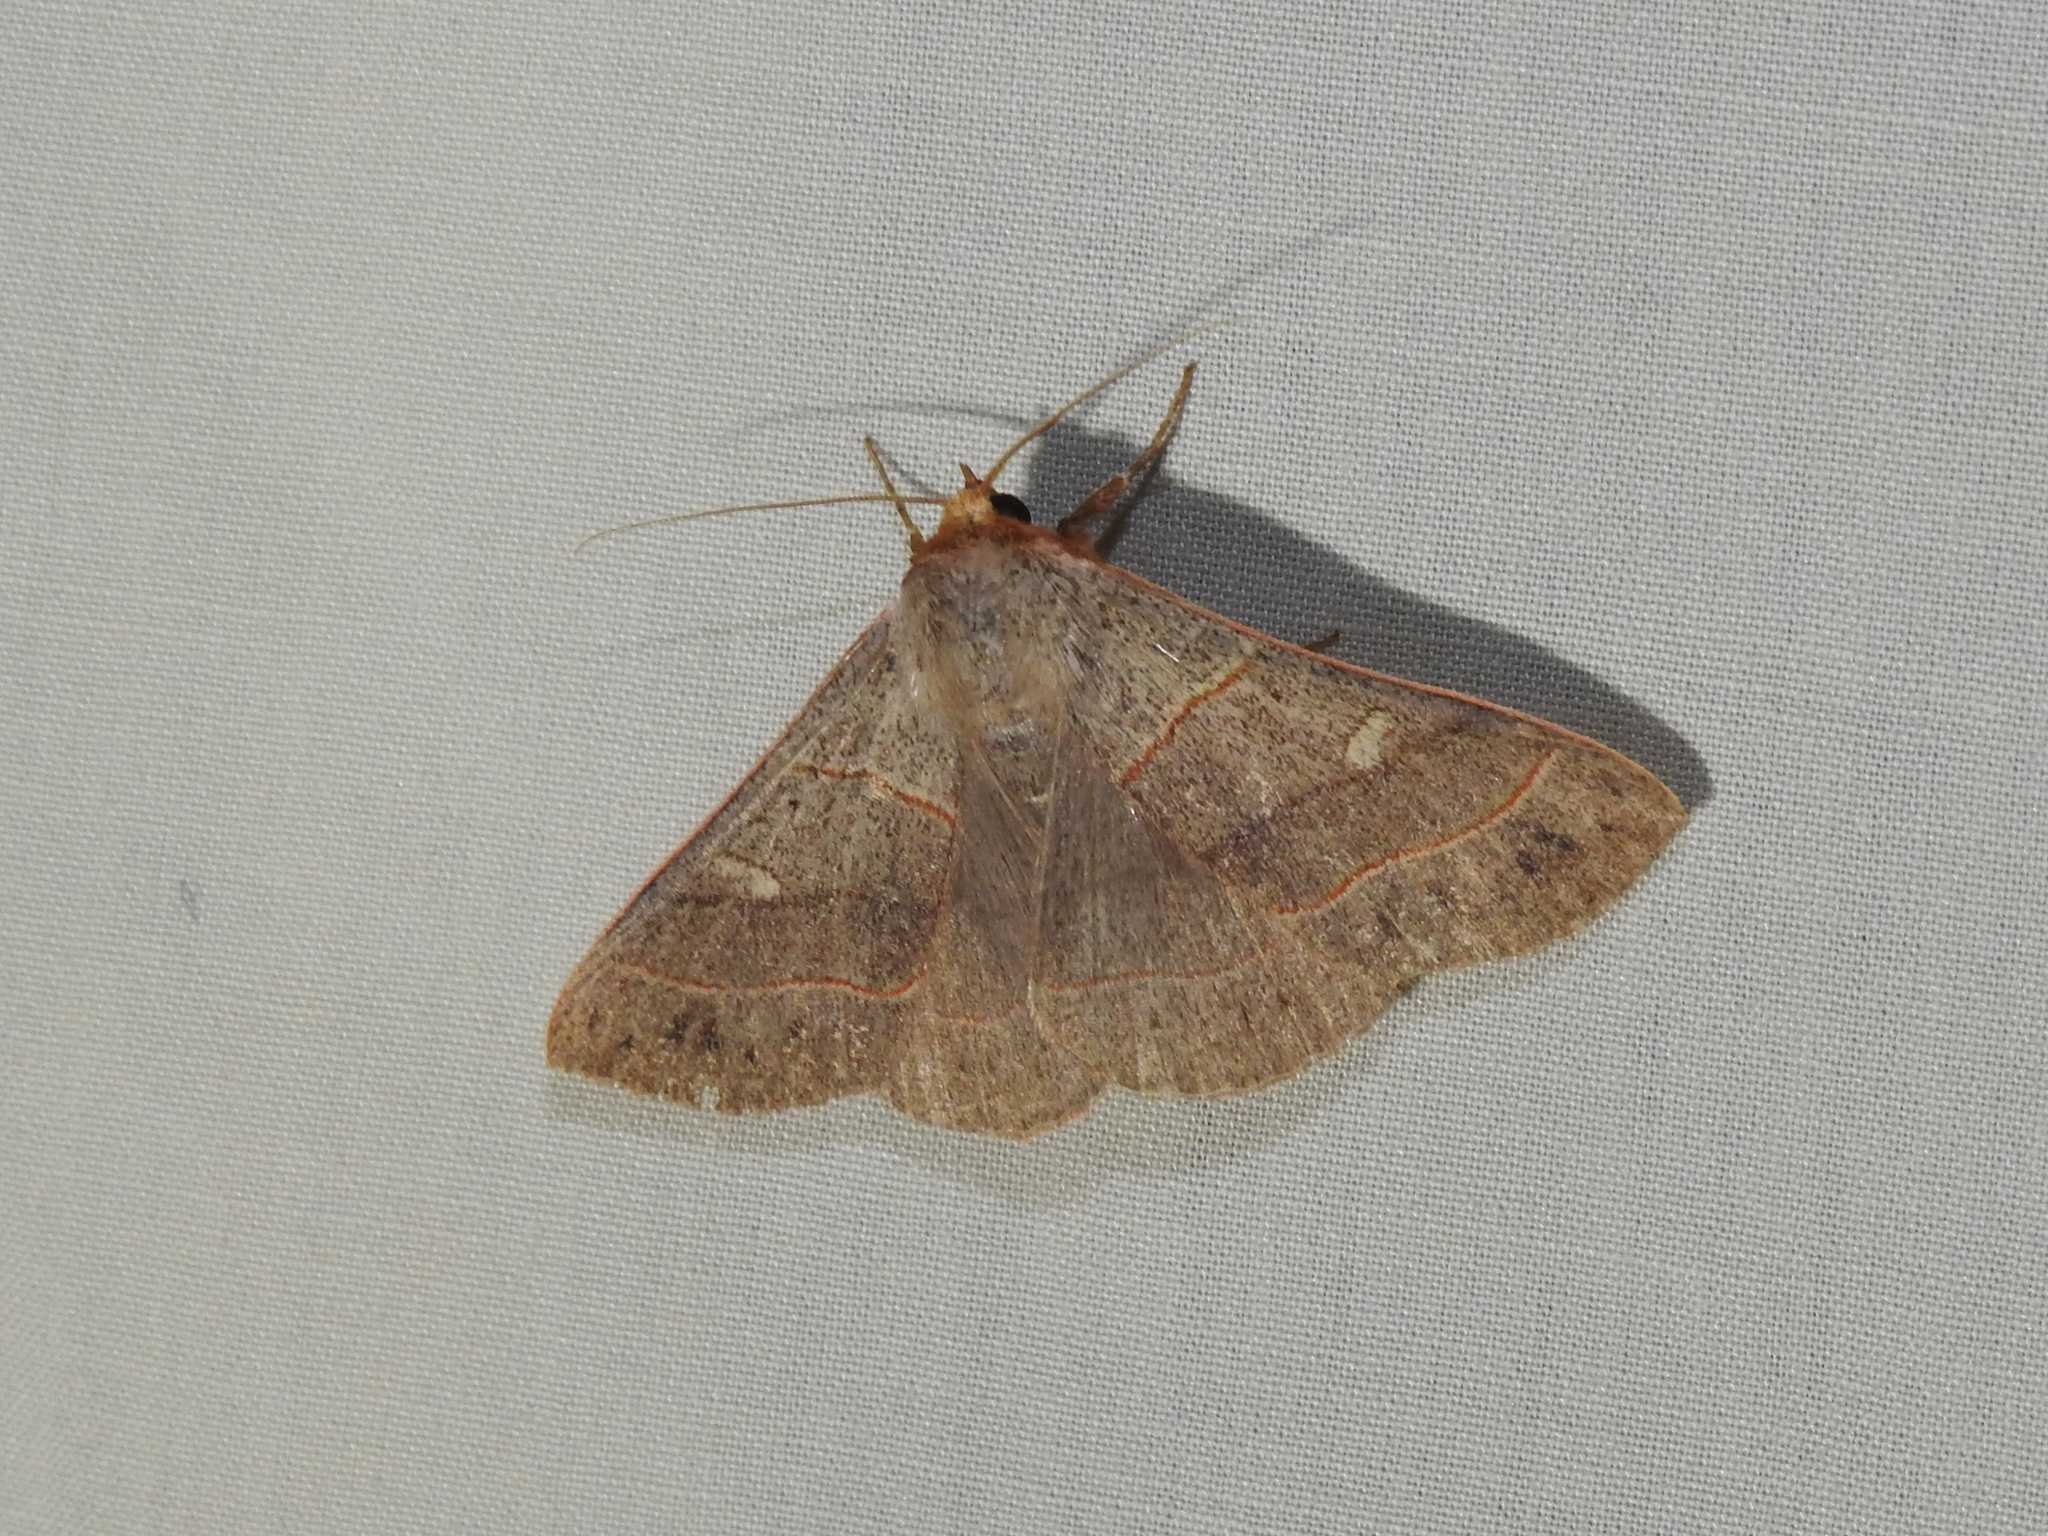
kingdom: Animalia
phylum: Arthropoda
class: Insecta
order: Lepidoptera
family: Erebidae
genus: Panopoda
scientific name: Panopoda rufimargo
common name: Red-lined panopoda moth
